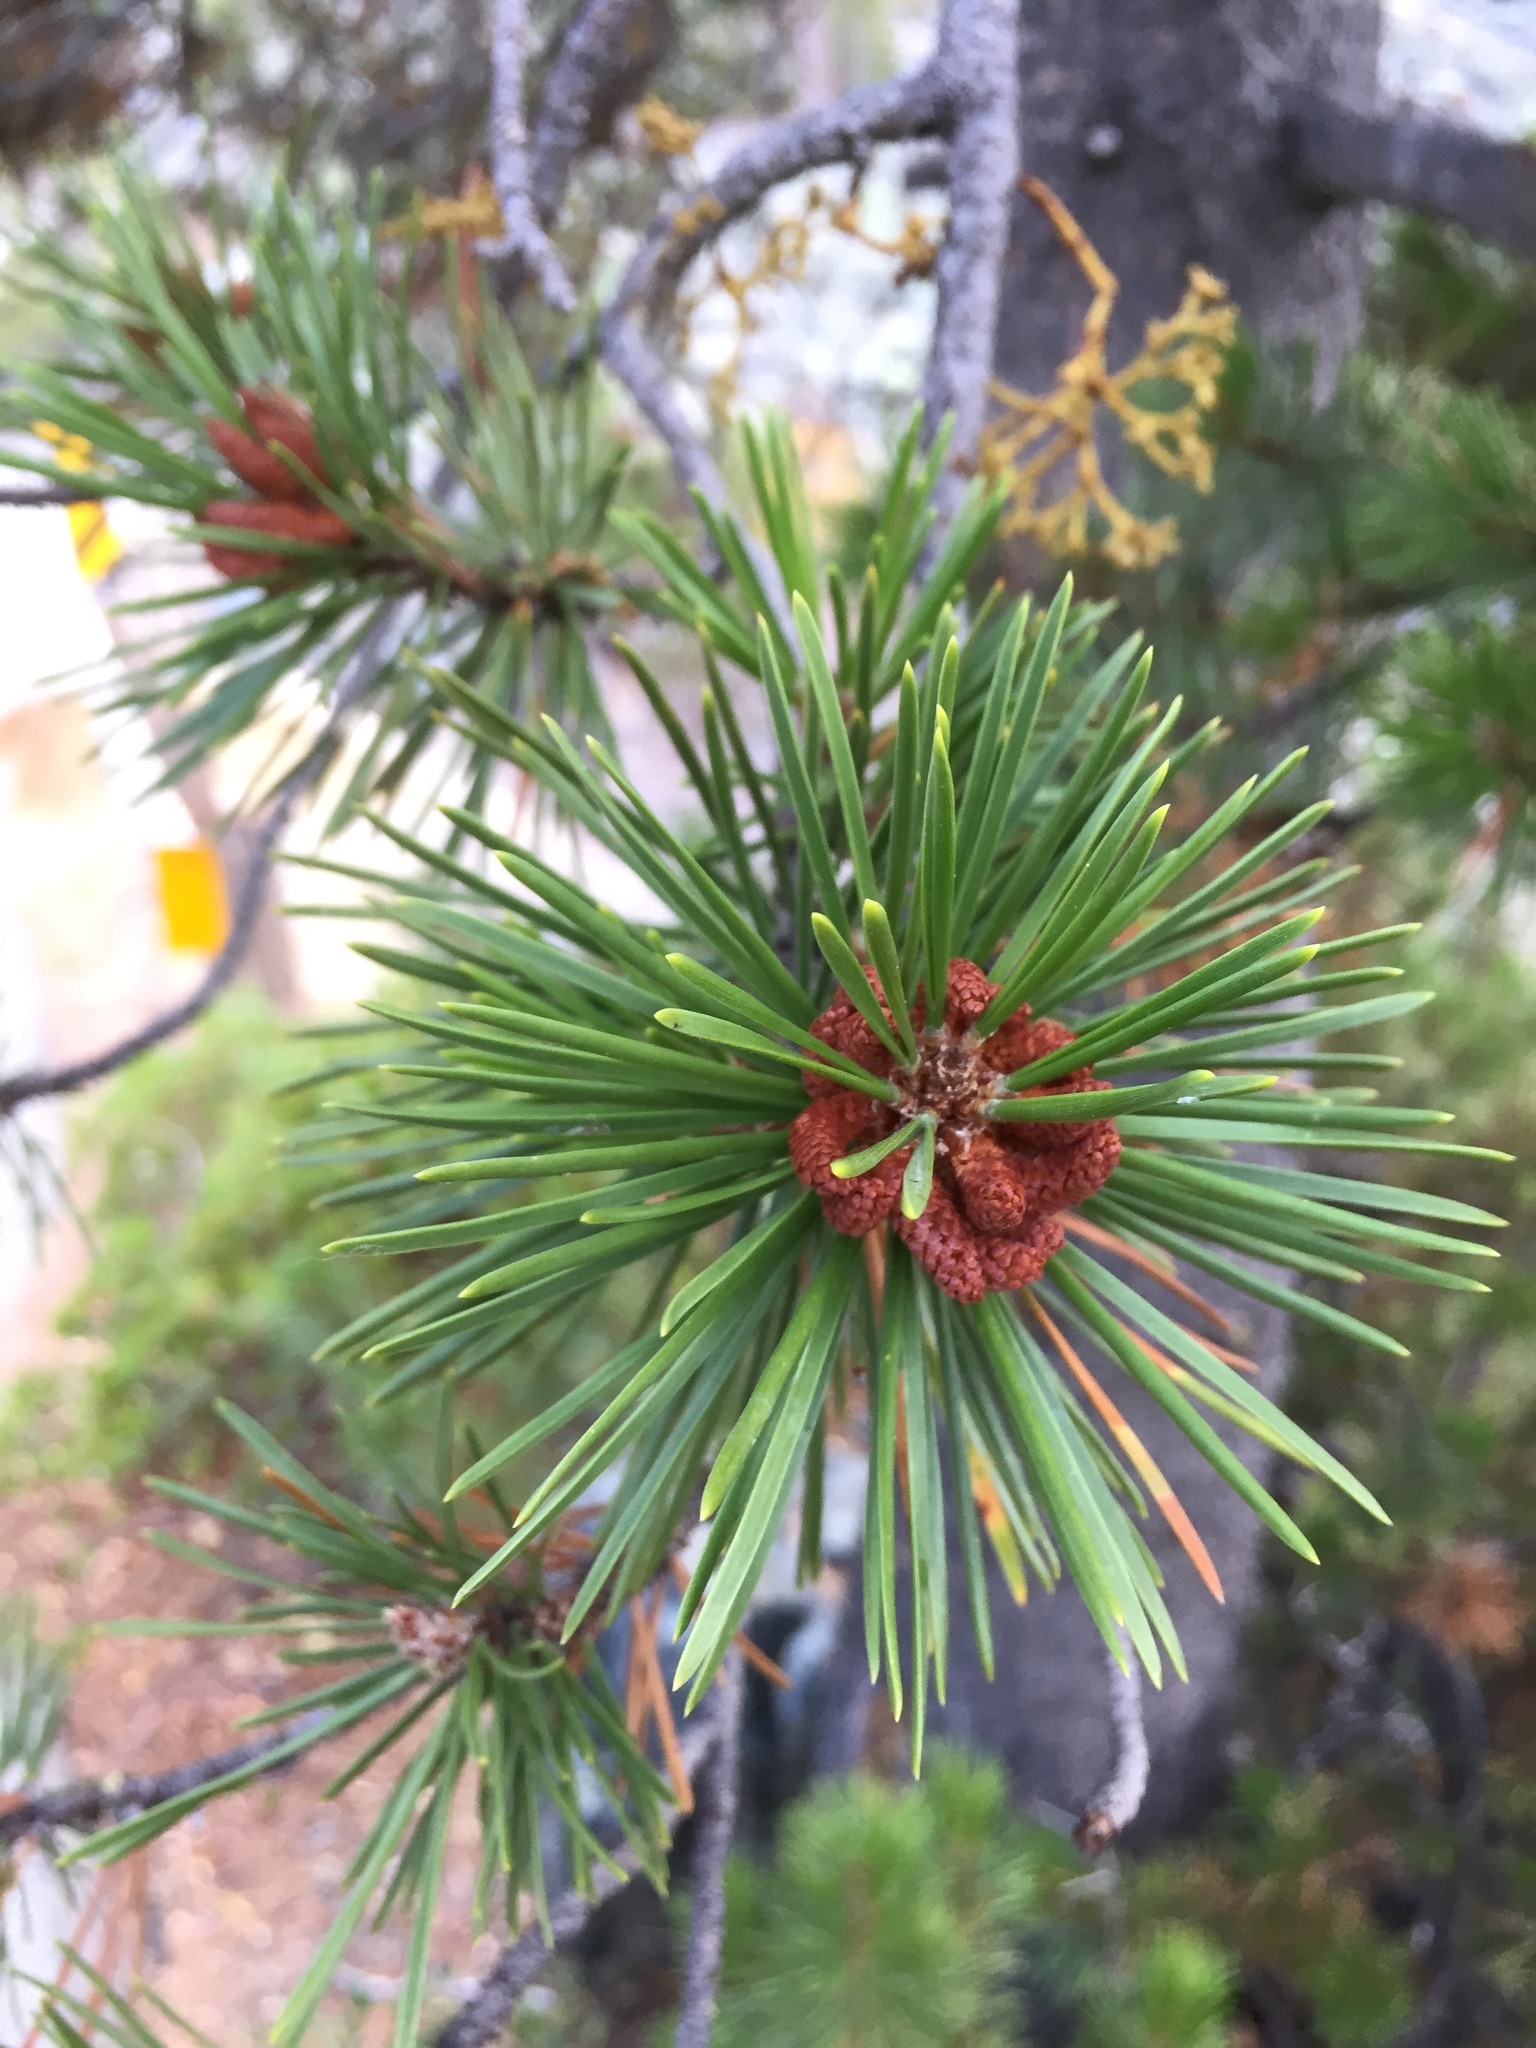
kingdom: Plantae
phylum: Tracheophyta
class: Pinopsida
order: Pinales
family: Pinaceae
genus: Pinus
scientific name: Pinus contorta
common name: Lodgepole pine
